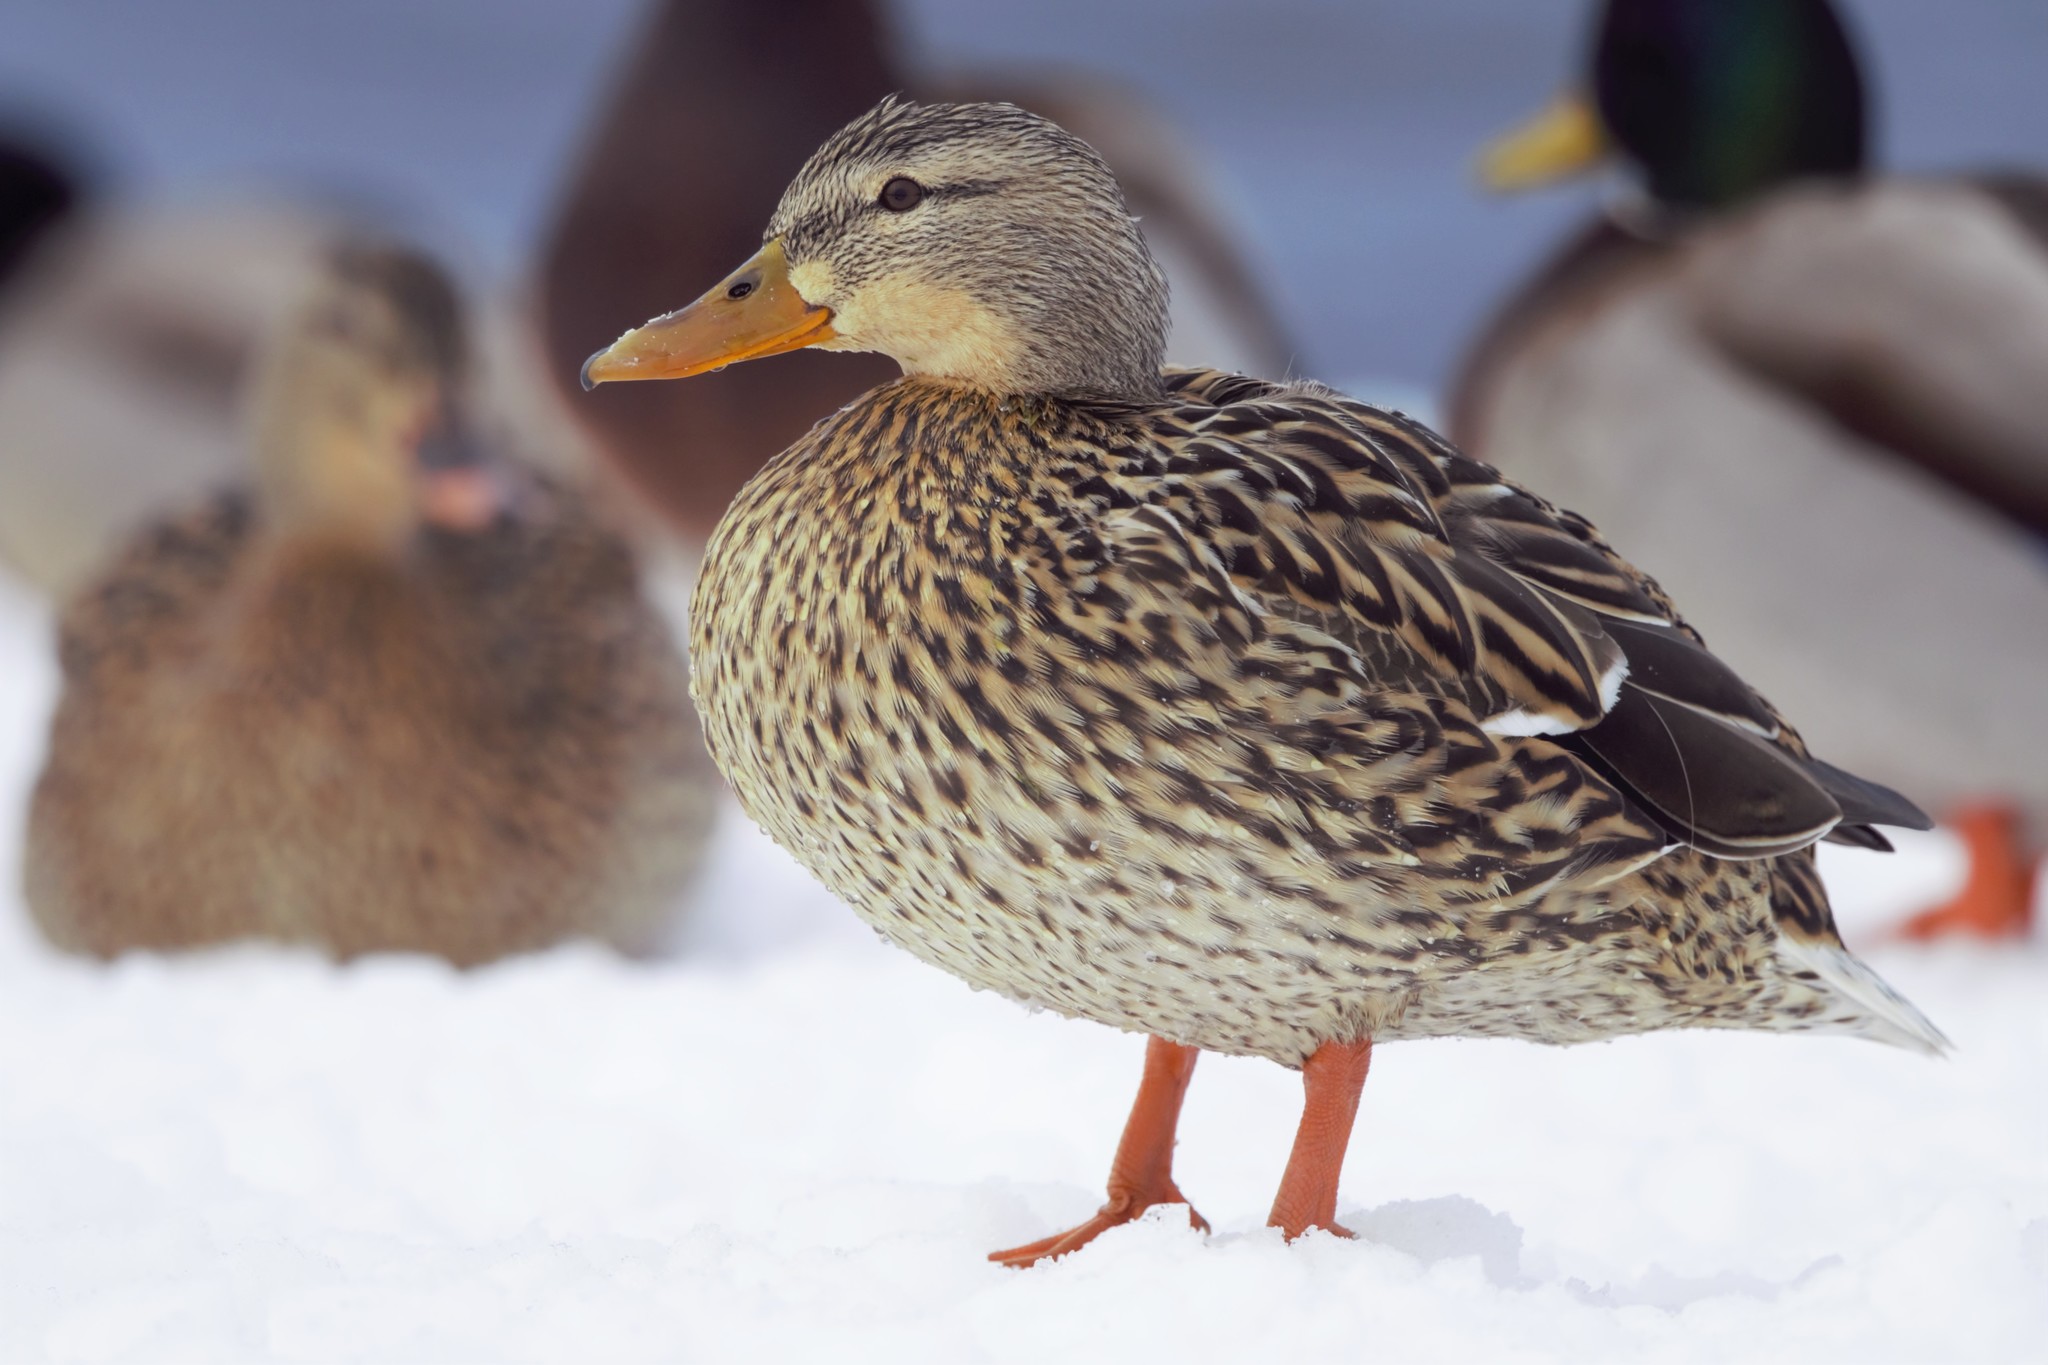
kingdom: Animalia
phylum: Chordata
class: Aves
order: Anseriformes
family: Anatidae
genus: Anas
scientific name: Anas platyrhynchos
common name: Mallard
